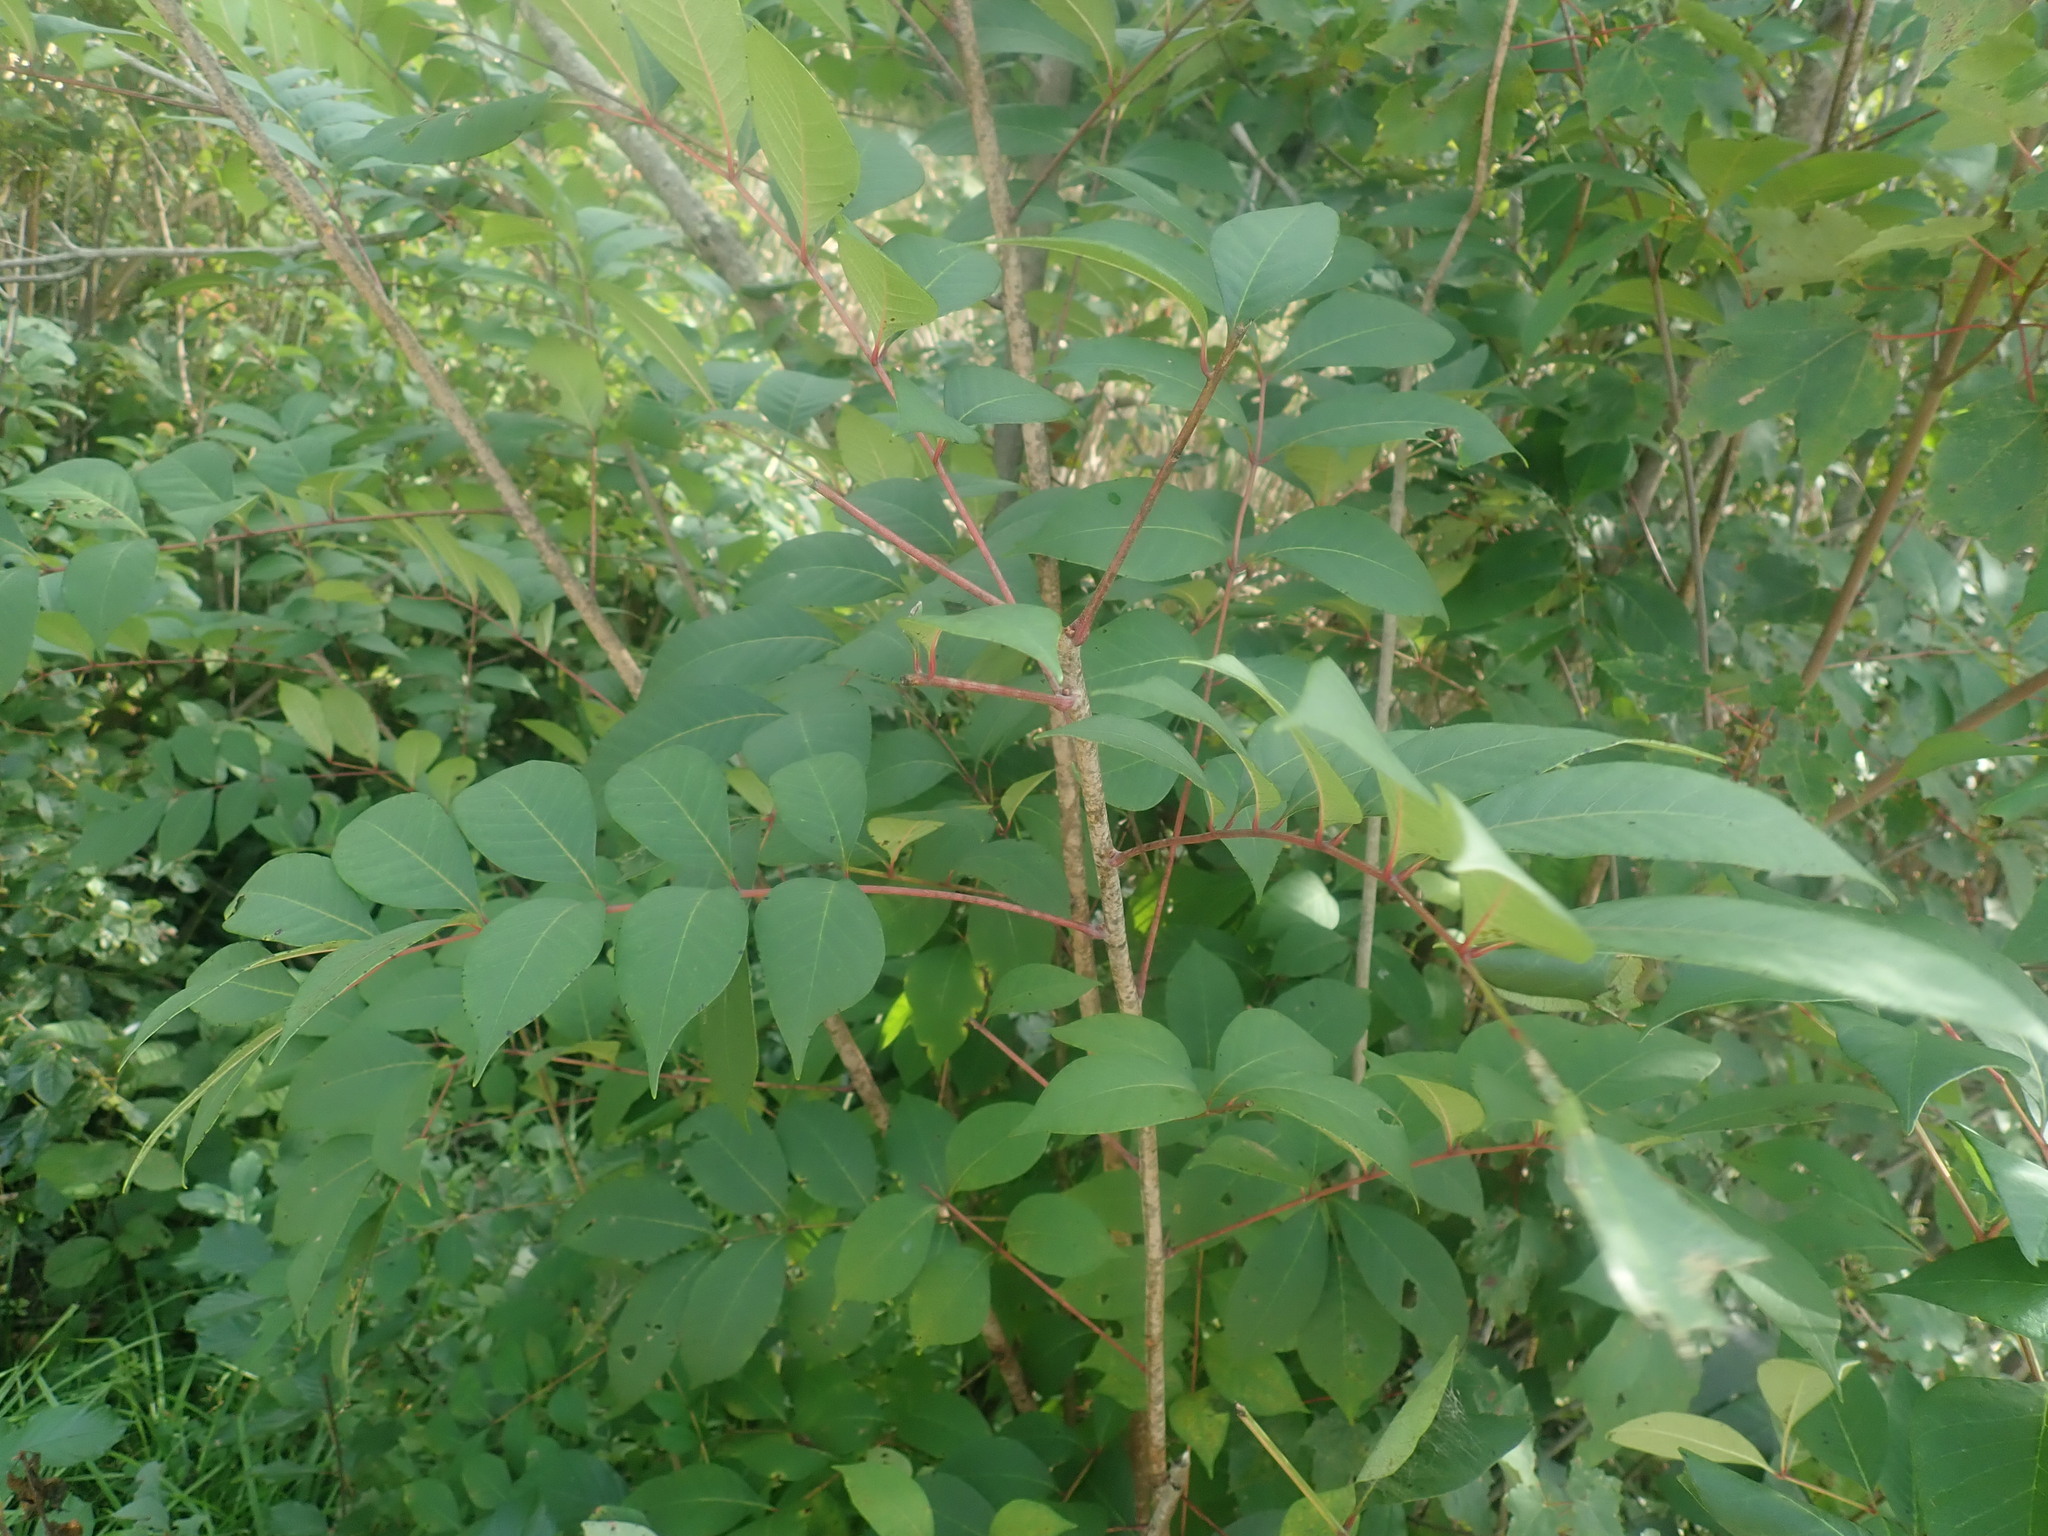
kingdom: Plantae
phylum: Tracheophyta
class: Magnoliopsida
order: Sapindales
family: Anacardiaceae
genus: Toxicodendron
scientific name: Toxicodendron vernix
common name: Poison sumac
